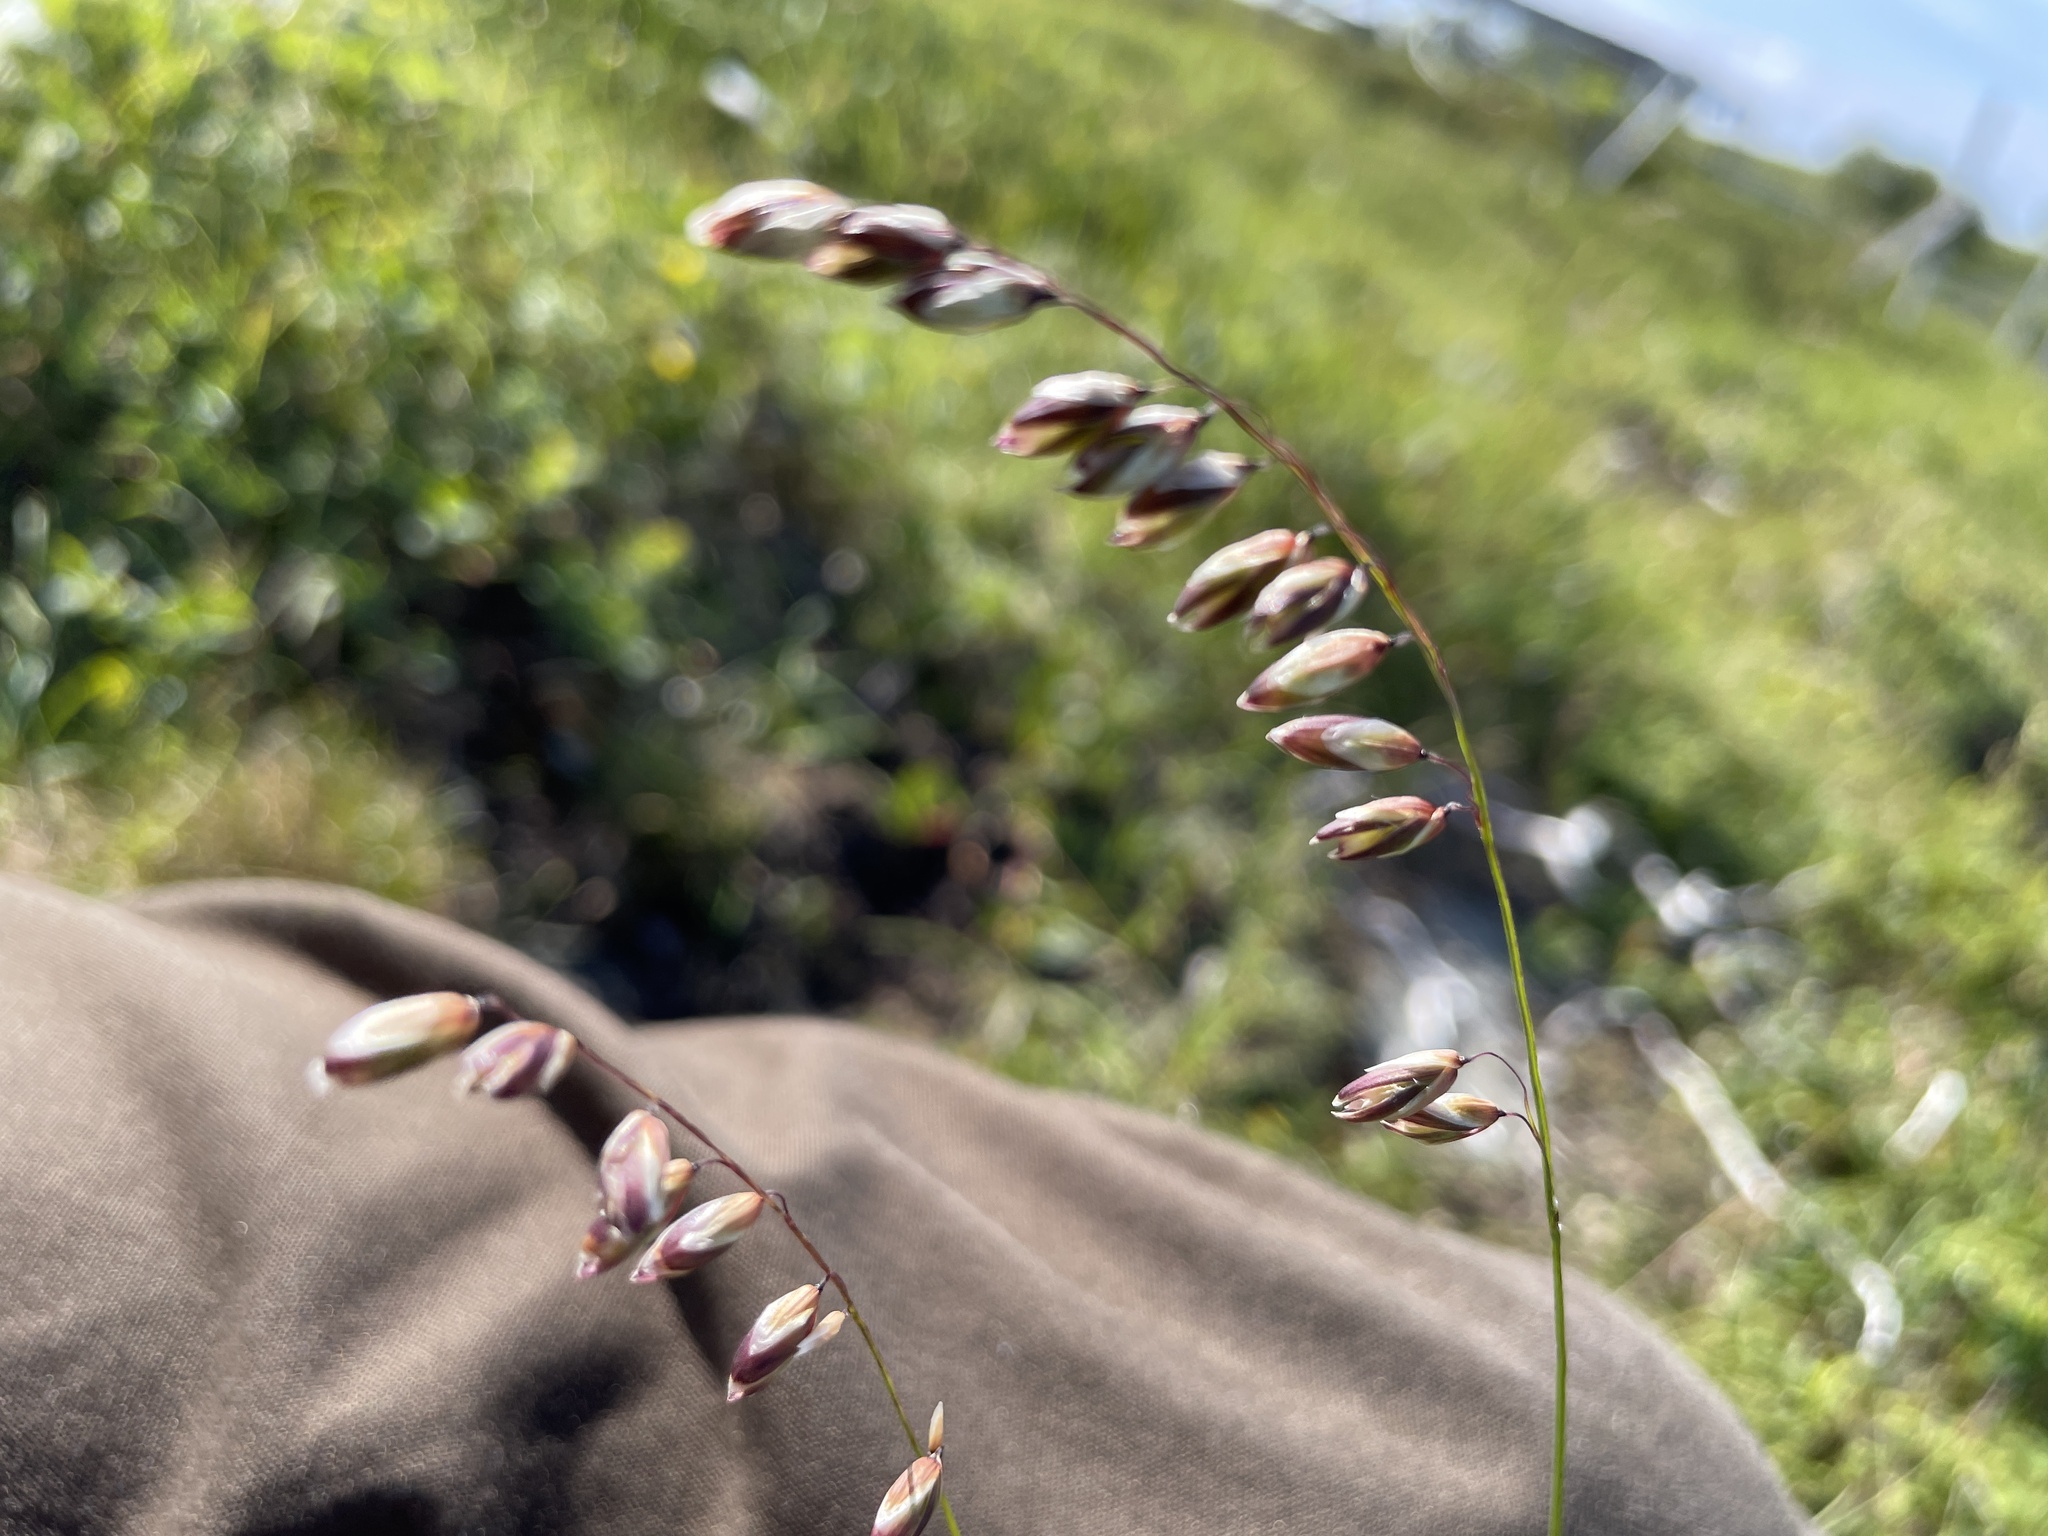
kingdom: Plantae
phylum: Tracheophyta
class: Liliopsida
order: Poales
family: Poaceae
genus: Melica
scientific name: Melica nutans
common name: Mountain melick
